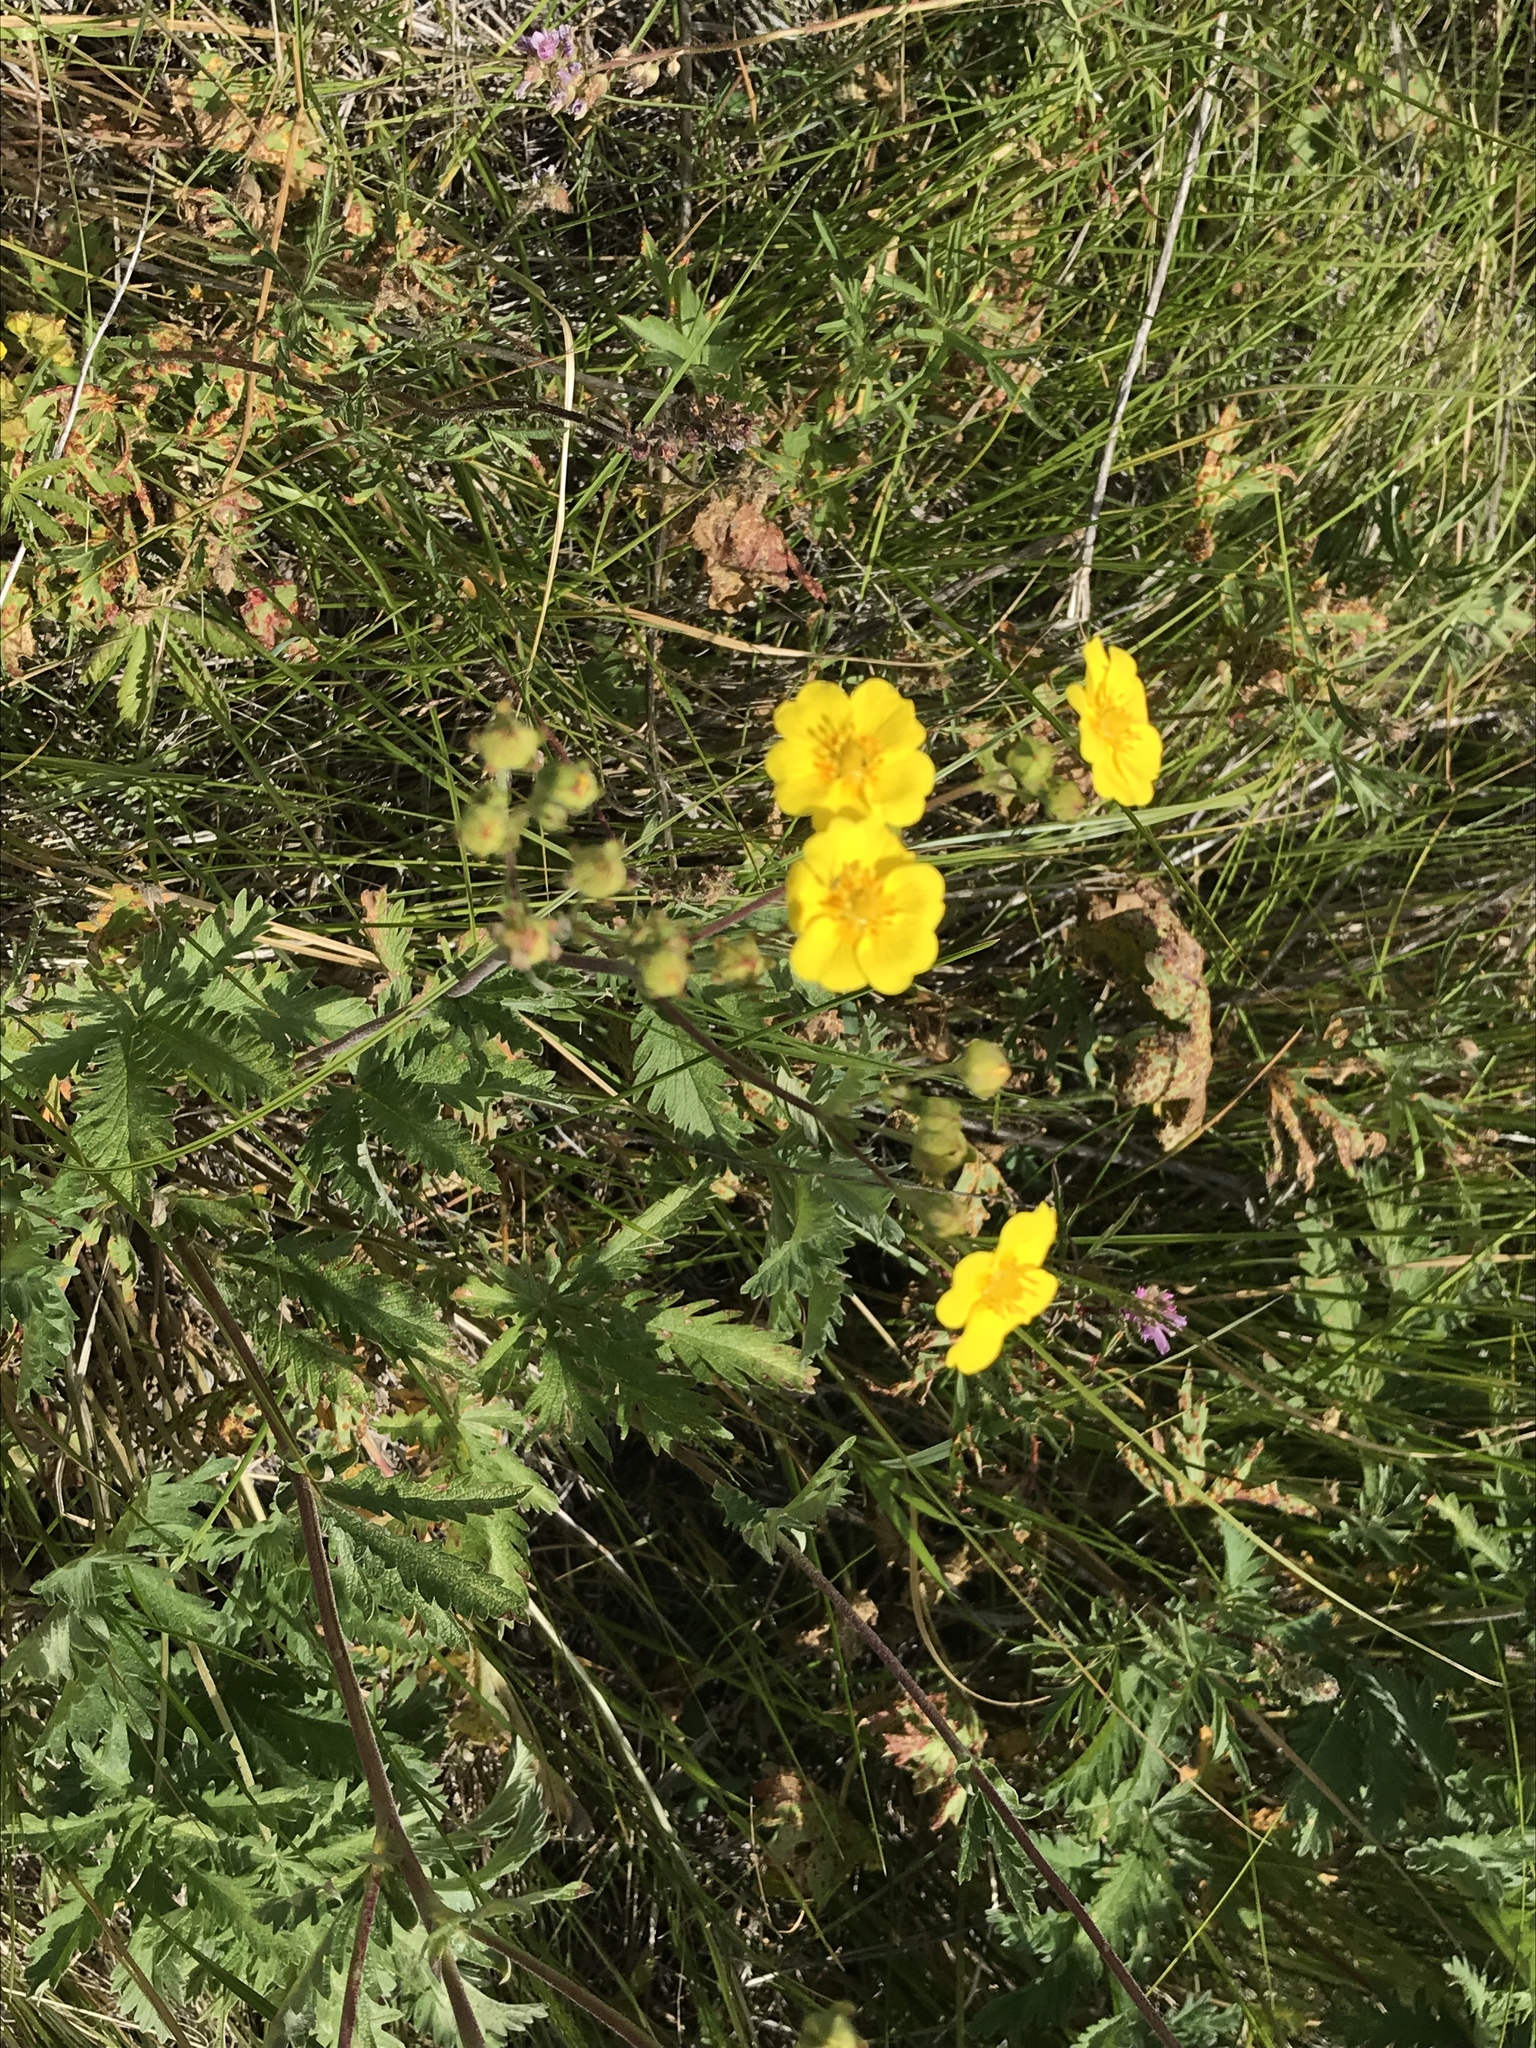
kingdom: Plantae
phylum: Tracheophyta
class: Magnoliopsida
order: Rosales
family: Rosaceae
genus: Potentilla
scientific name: Potentilla gracilis
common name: Graceful cinquefoil
